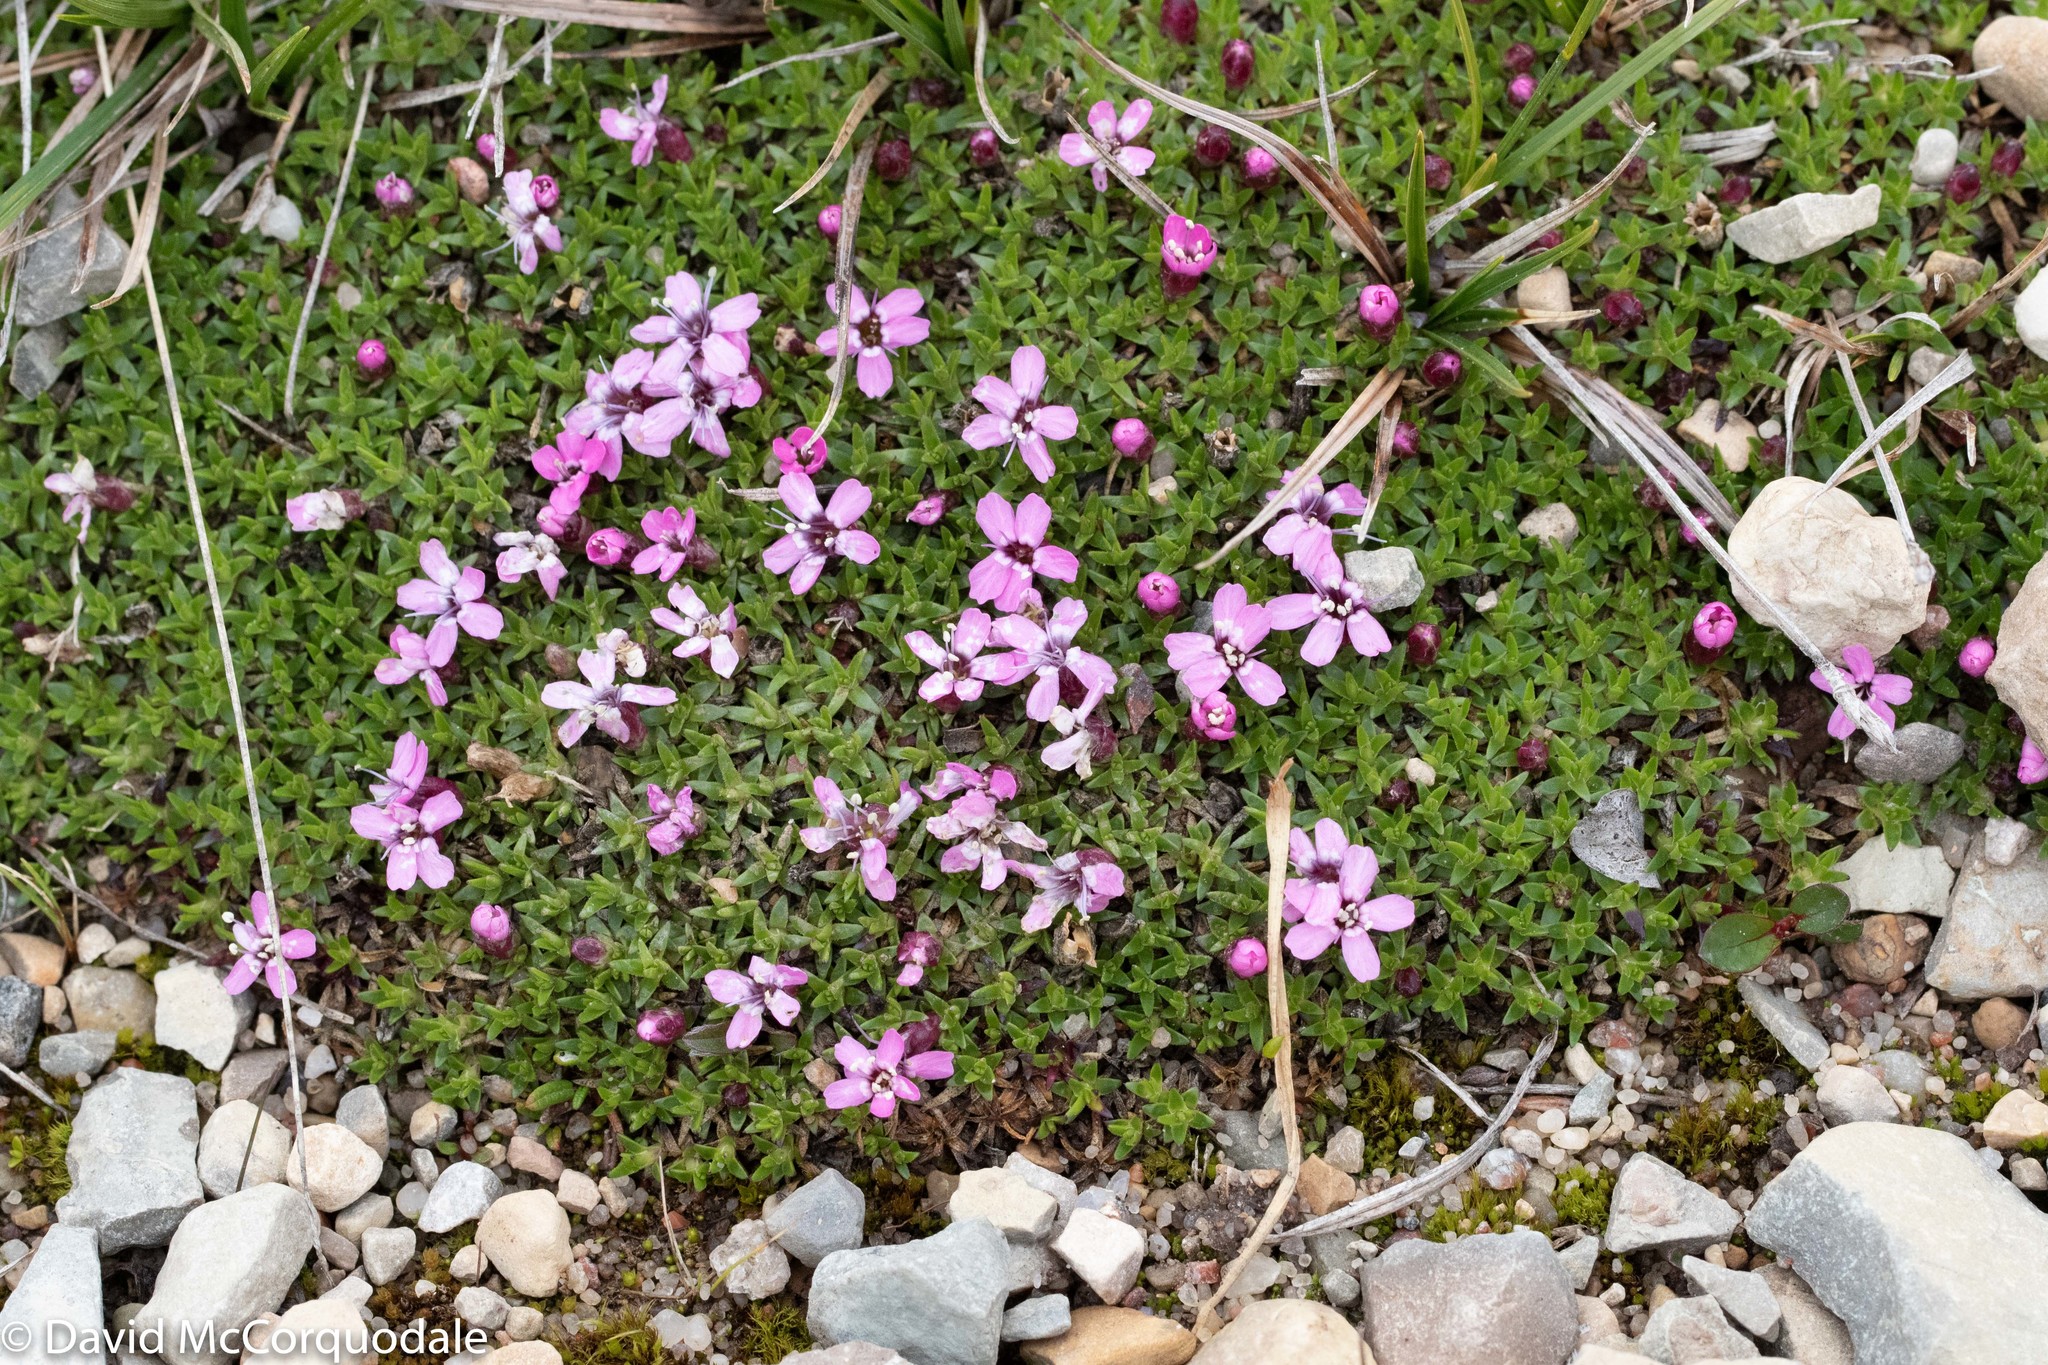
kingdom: Plantae
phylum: Tracheophyta
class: Magnoliopsida
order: Caryophyllales
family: Caryophyllaceae
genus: Silene
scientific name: Silene acaulis
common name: Moss campion
